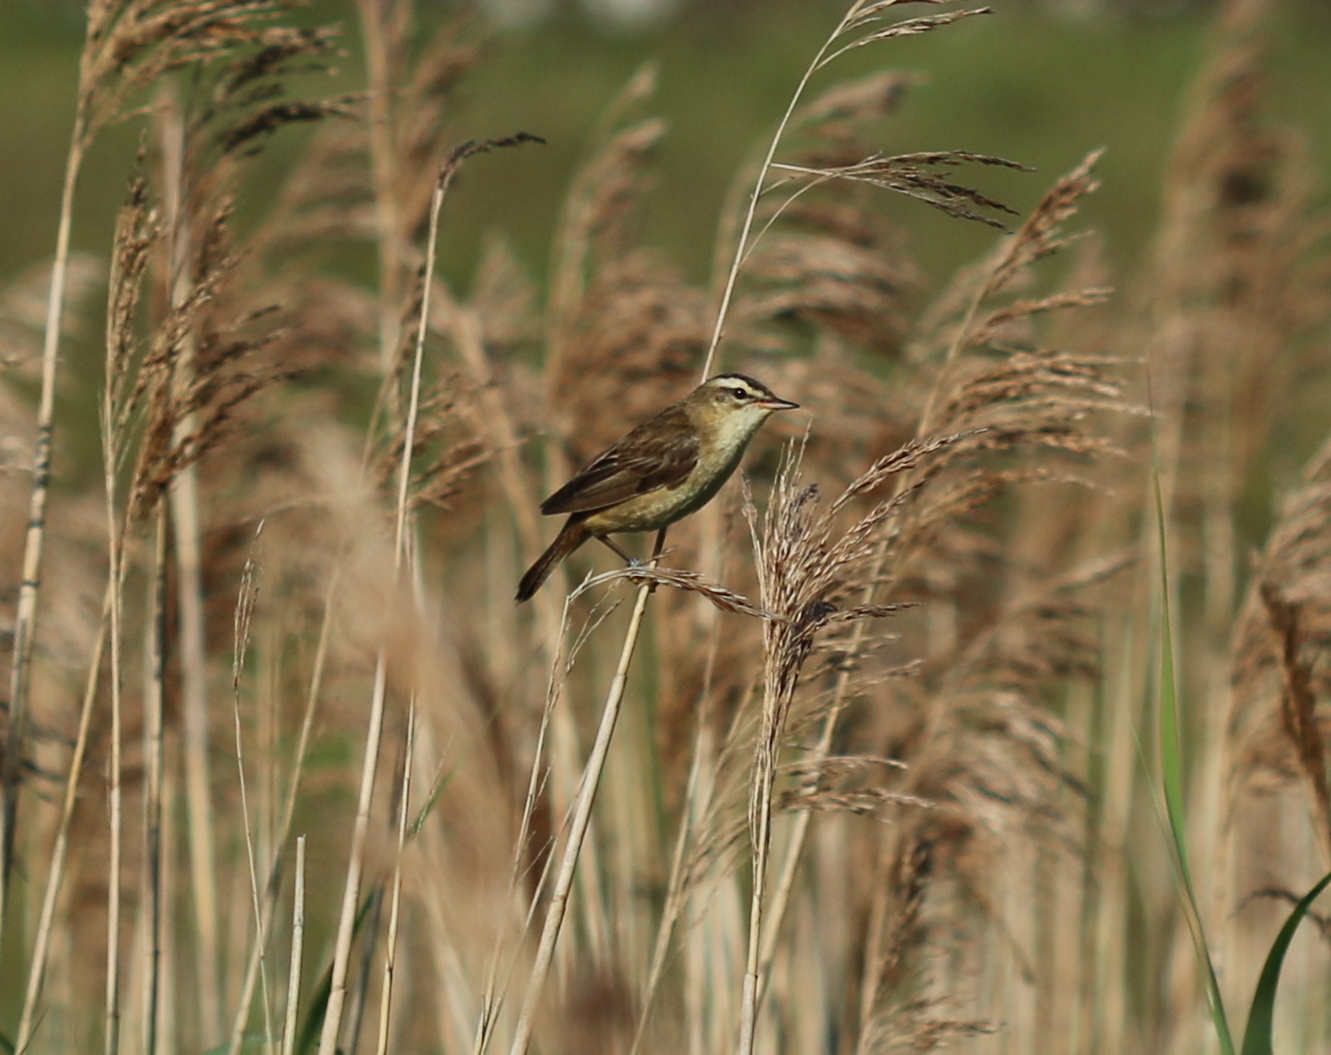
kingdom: Animalia
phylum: Chordata
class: Aves
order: Passeriformes
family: Acrocephalidae
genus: Acrocephalus
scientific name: Acrocephalus schoenobaenus
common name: Sedge warbler
